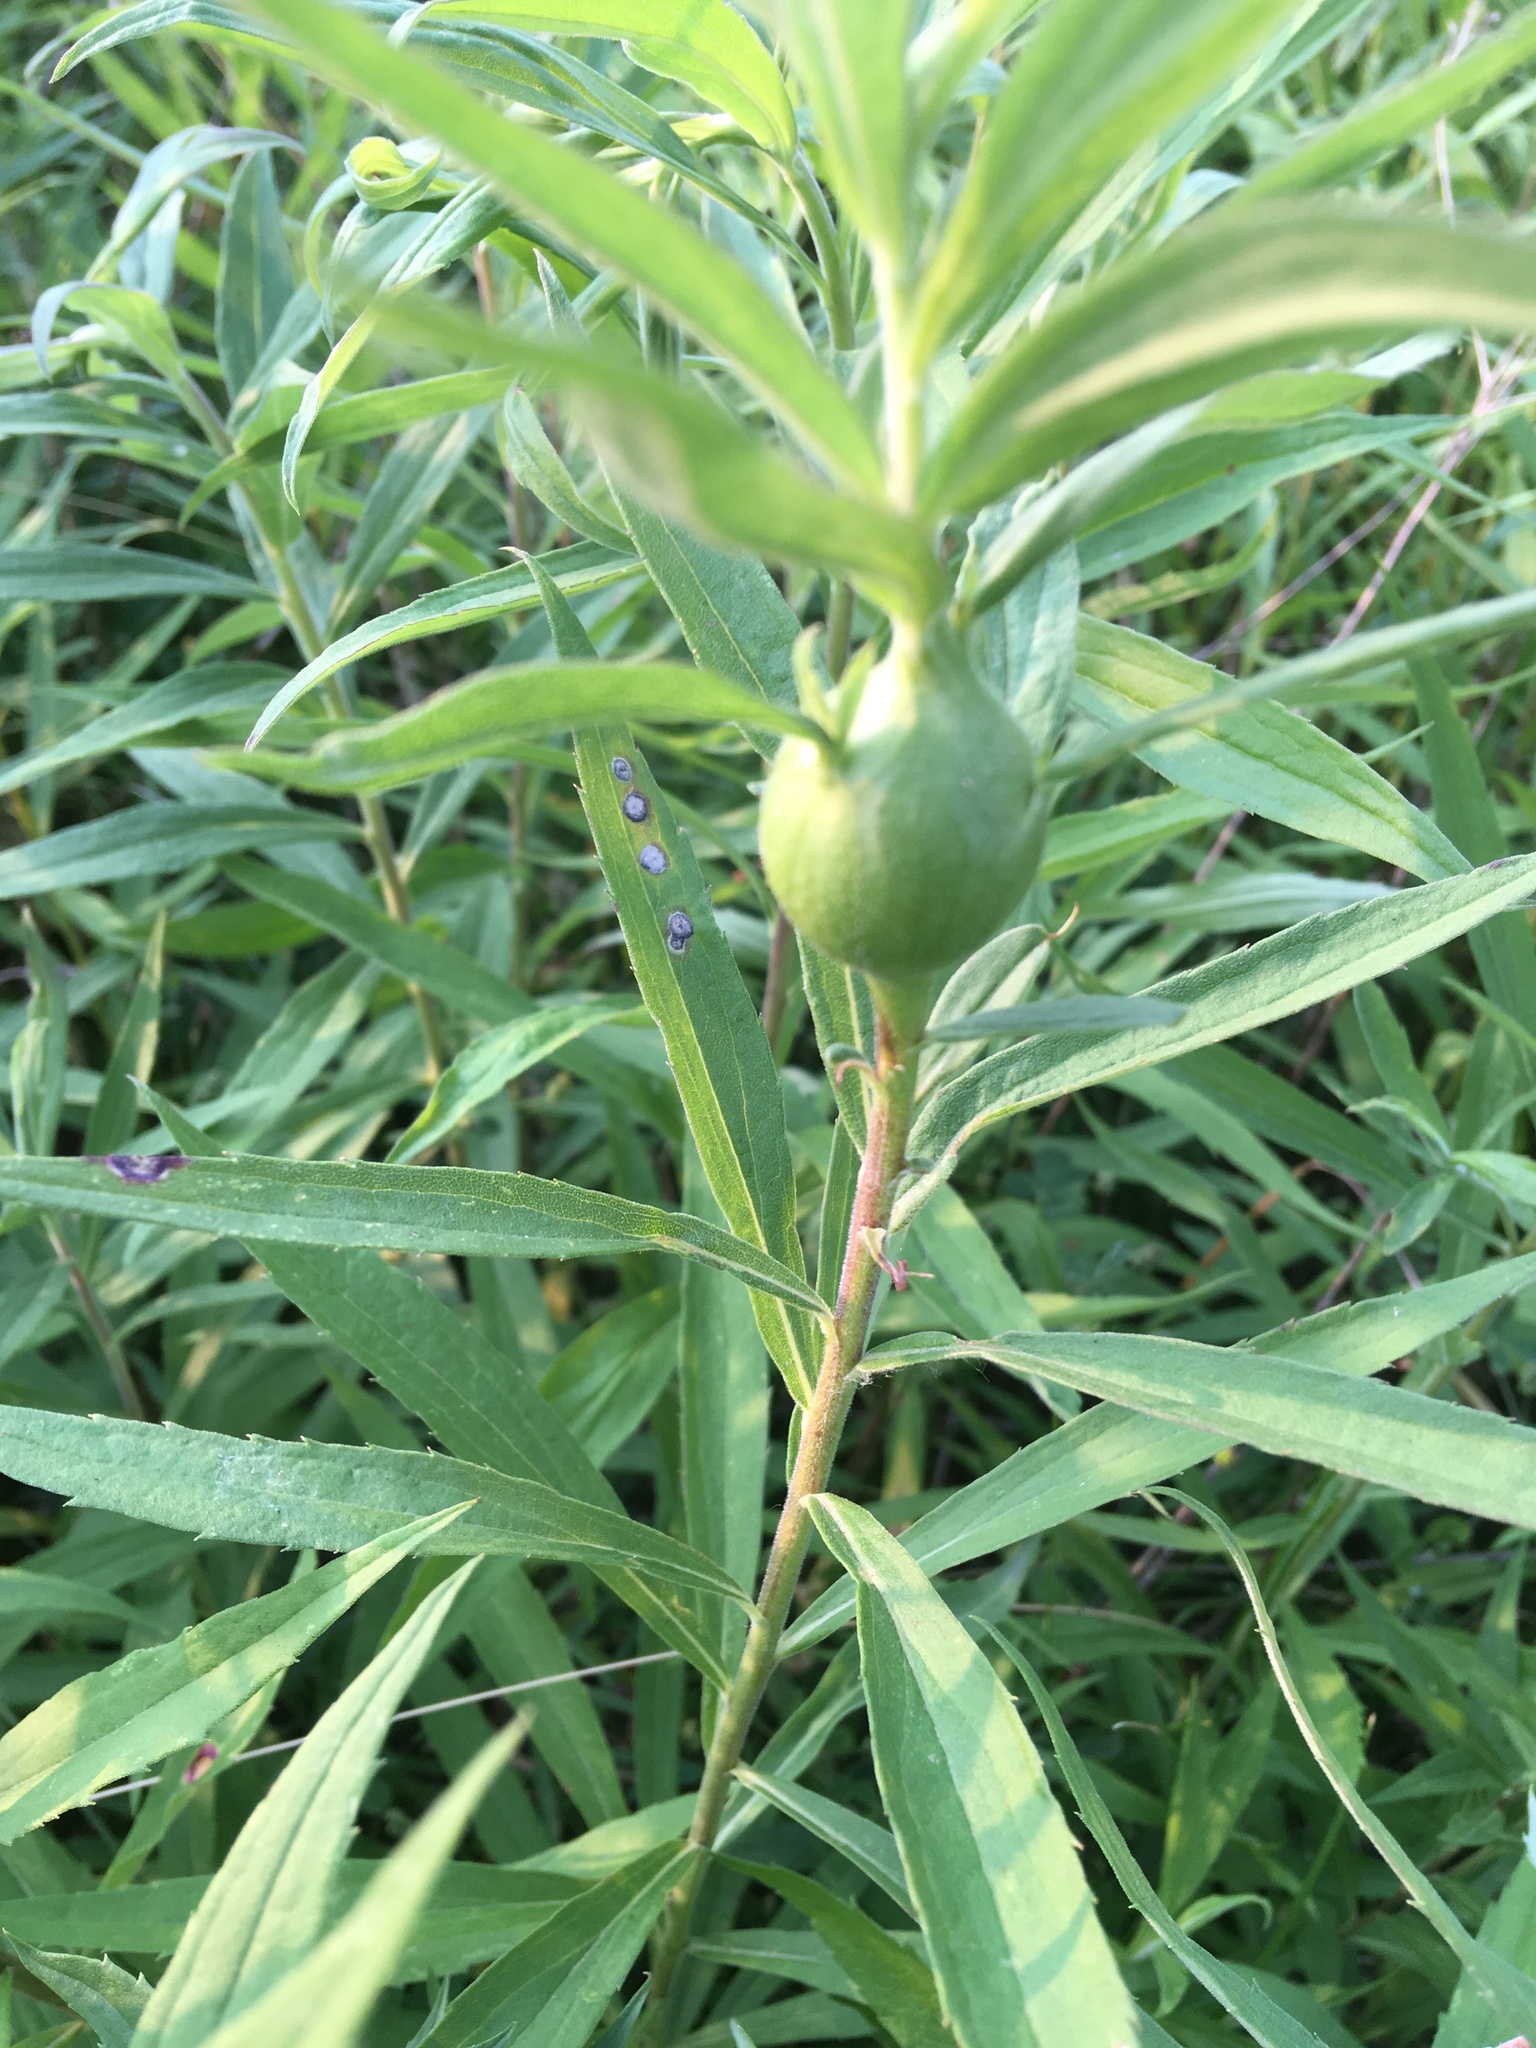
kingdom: Animalia
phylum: Arthropoda
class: Insecta
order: Diptera
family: Tephritidae
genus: Eurosta
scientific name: Eurosta solidaginis
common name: Goldenrod gall fly
